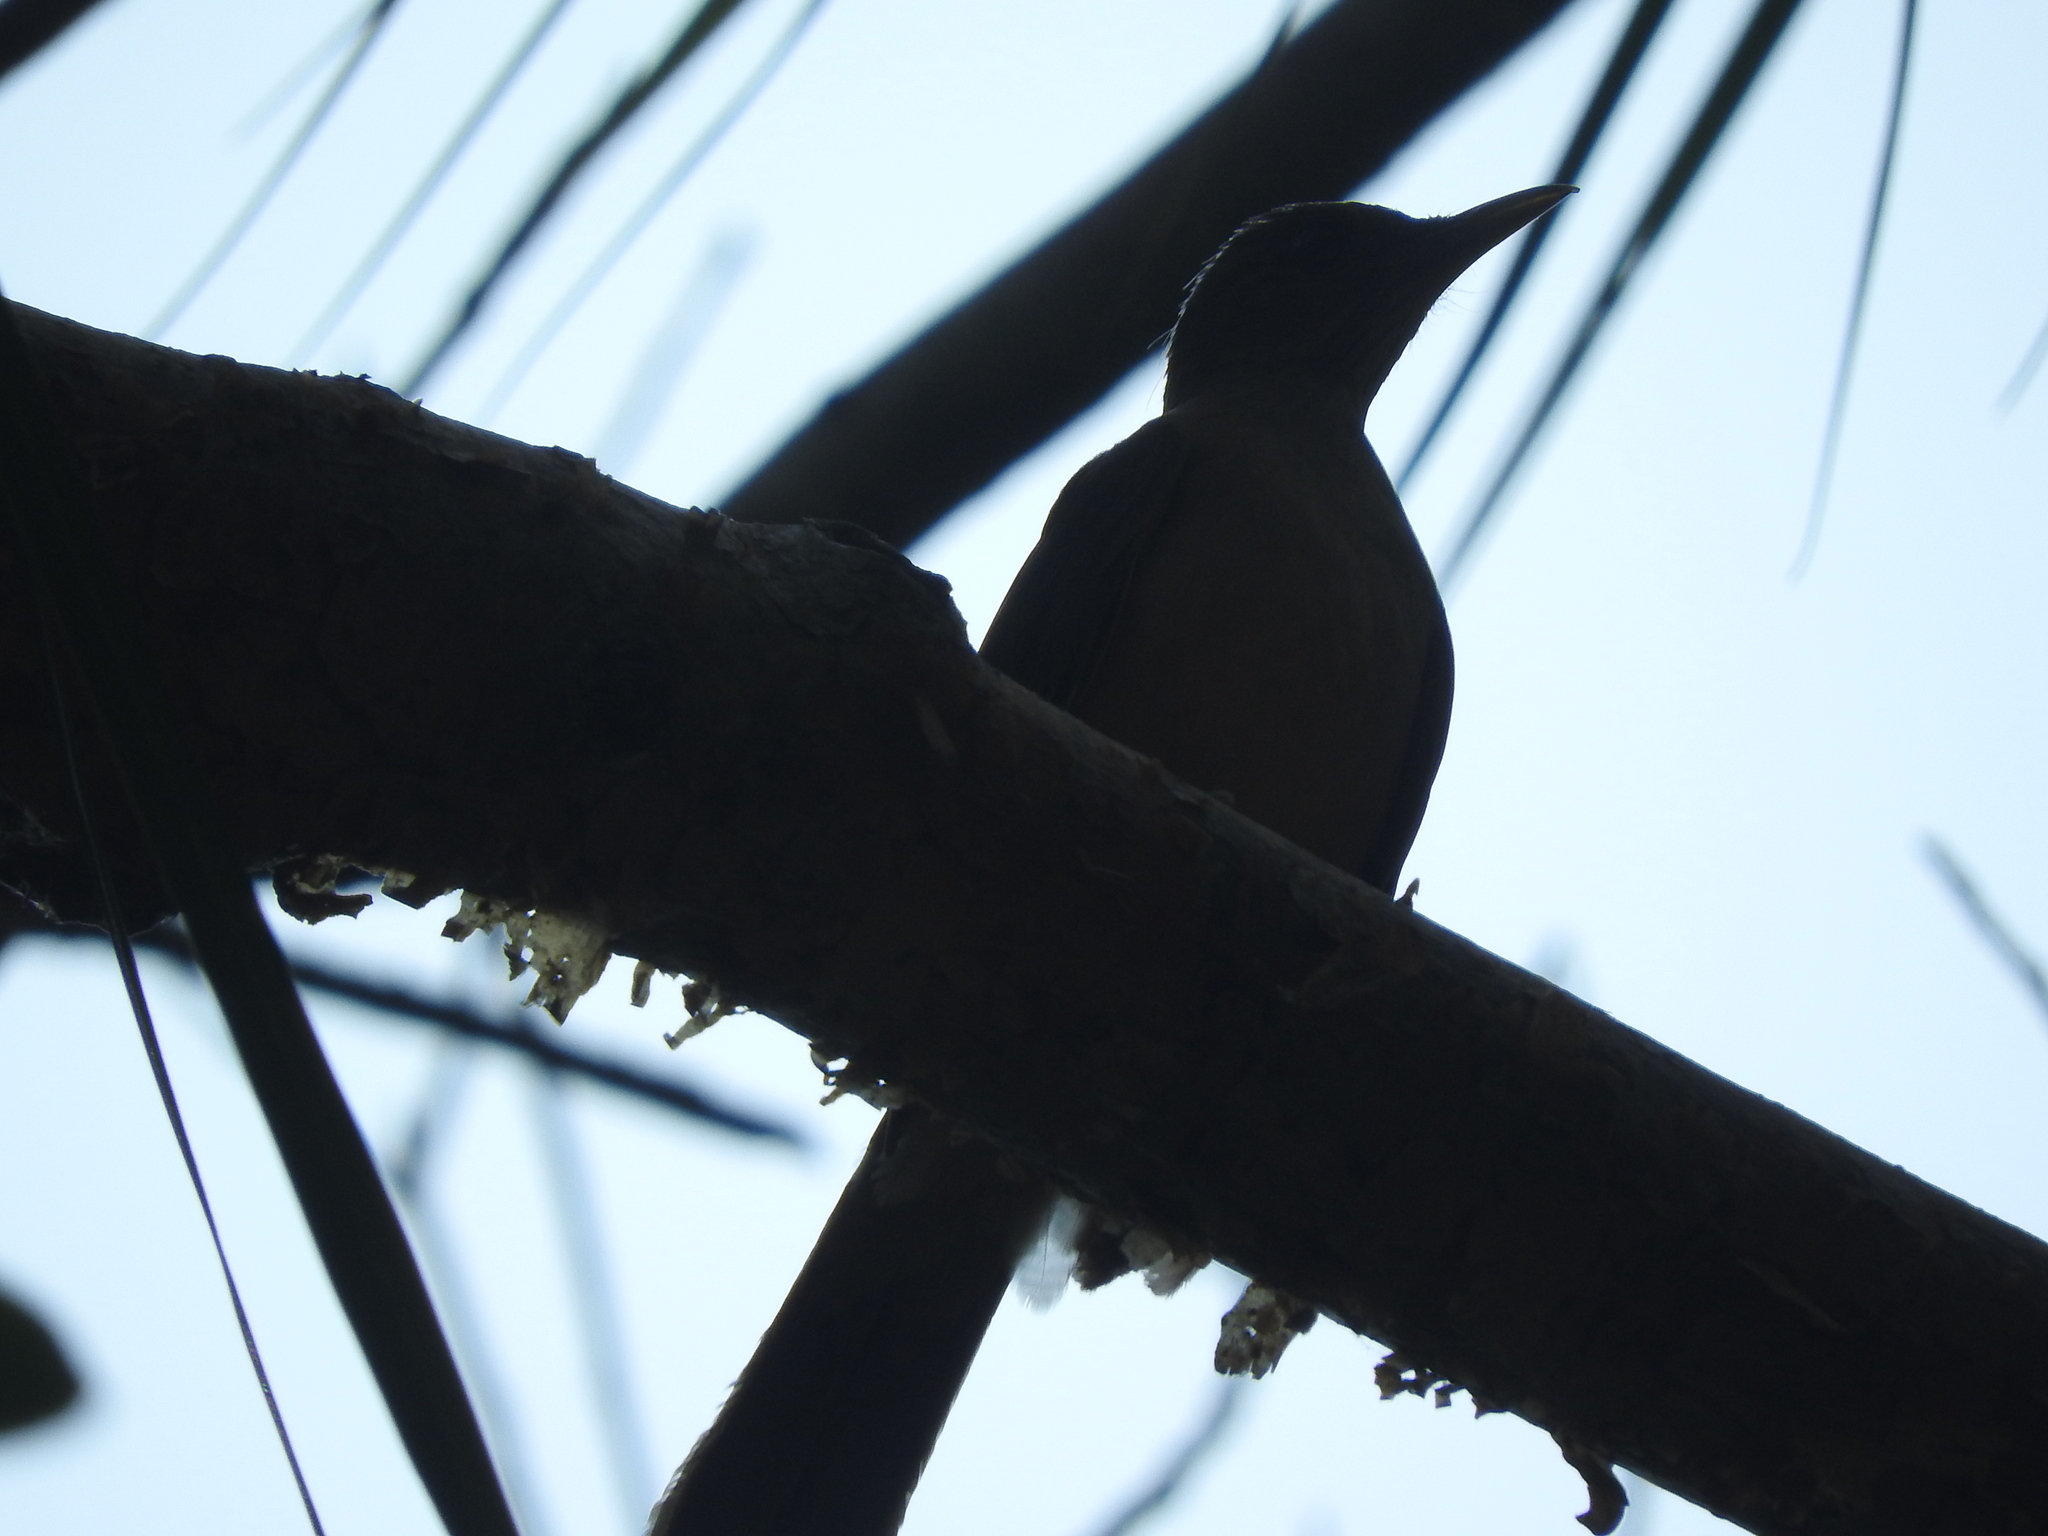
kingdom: Animalia
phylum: Chordata
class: Aves
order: Passeriformes
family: Turdidae
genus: Turdus
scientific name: Turdus grayi
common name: Clay-colored thrush
